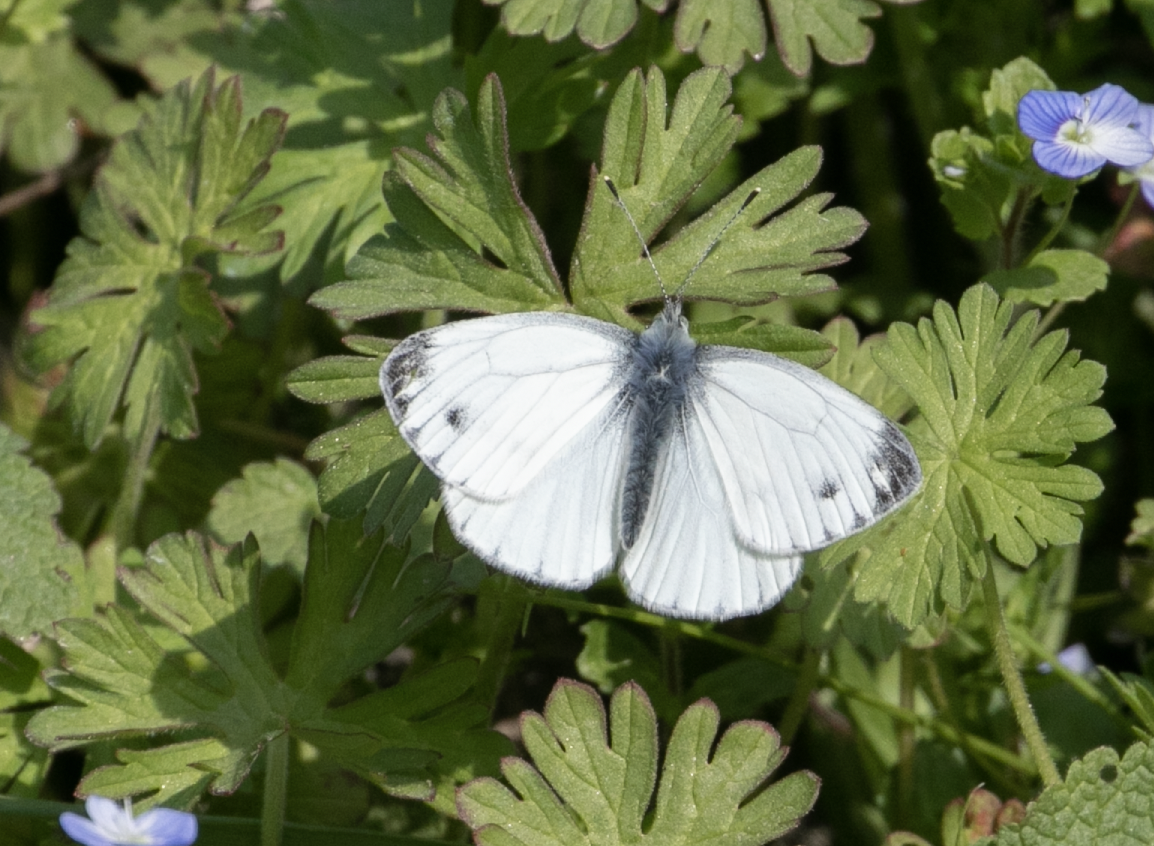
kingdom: Animalia
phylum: Arthropoda
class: Insecta
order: Lepidoptera
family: Pieridae
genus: Pieris
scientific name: Pieris napi
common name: Green-veined white
